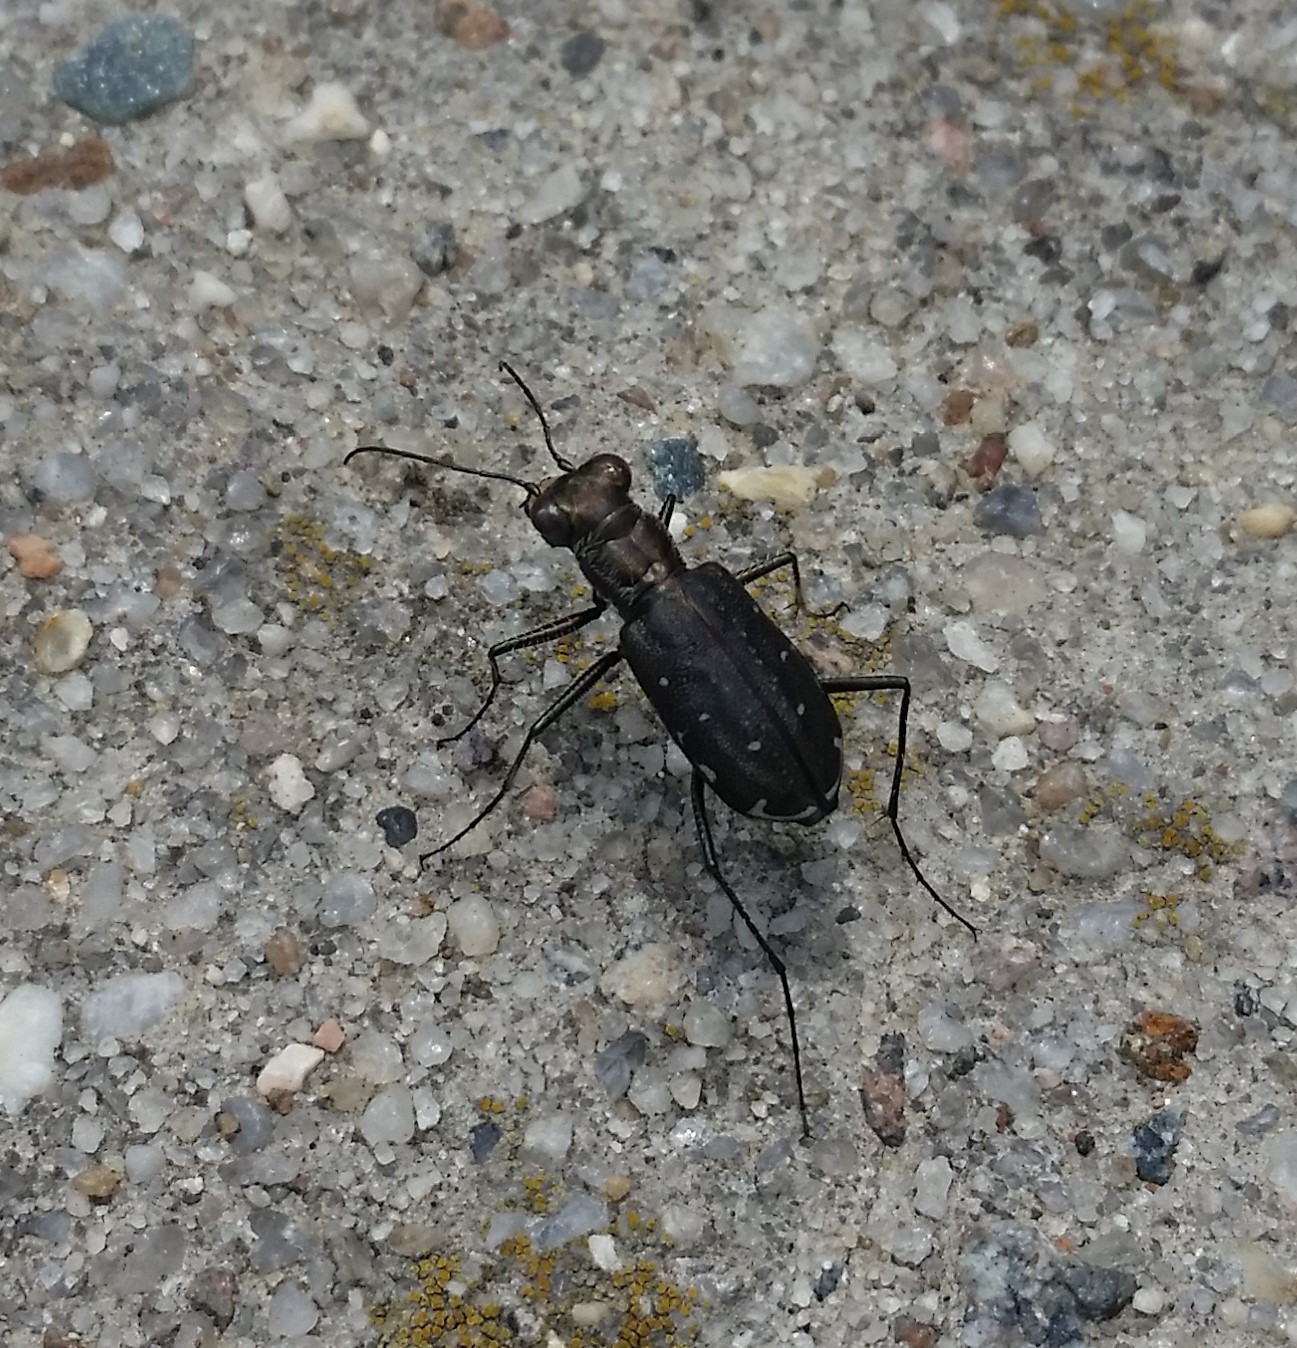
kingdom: Animalia
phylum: Arthropoda
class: Insecta
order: Coleoptera
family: Carabidae
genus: Cicindela
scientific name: Cicindela punctulata
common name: Punctured tiger beetle
